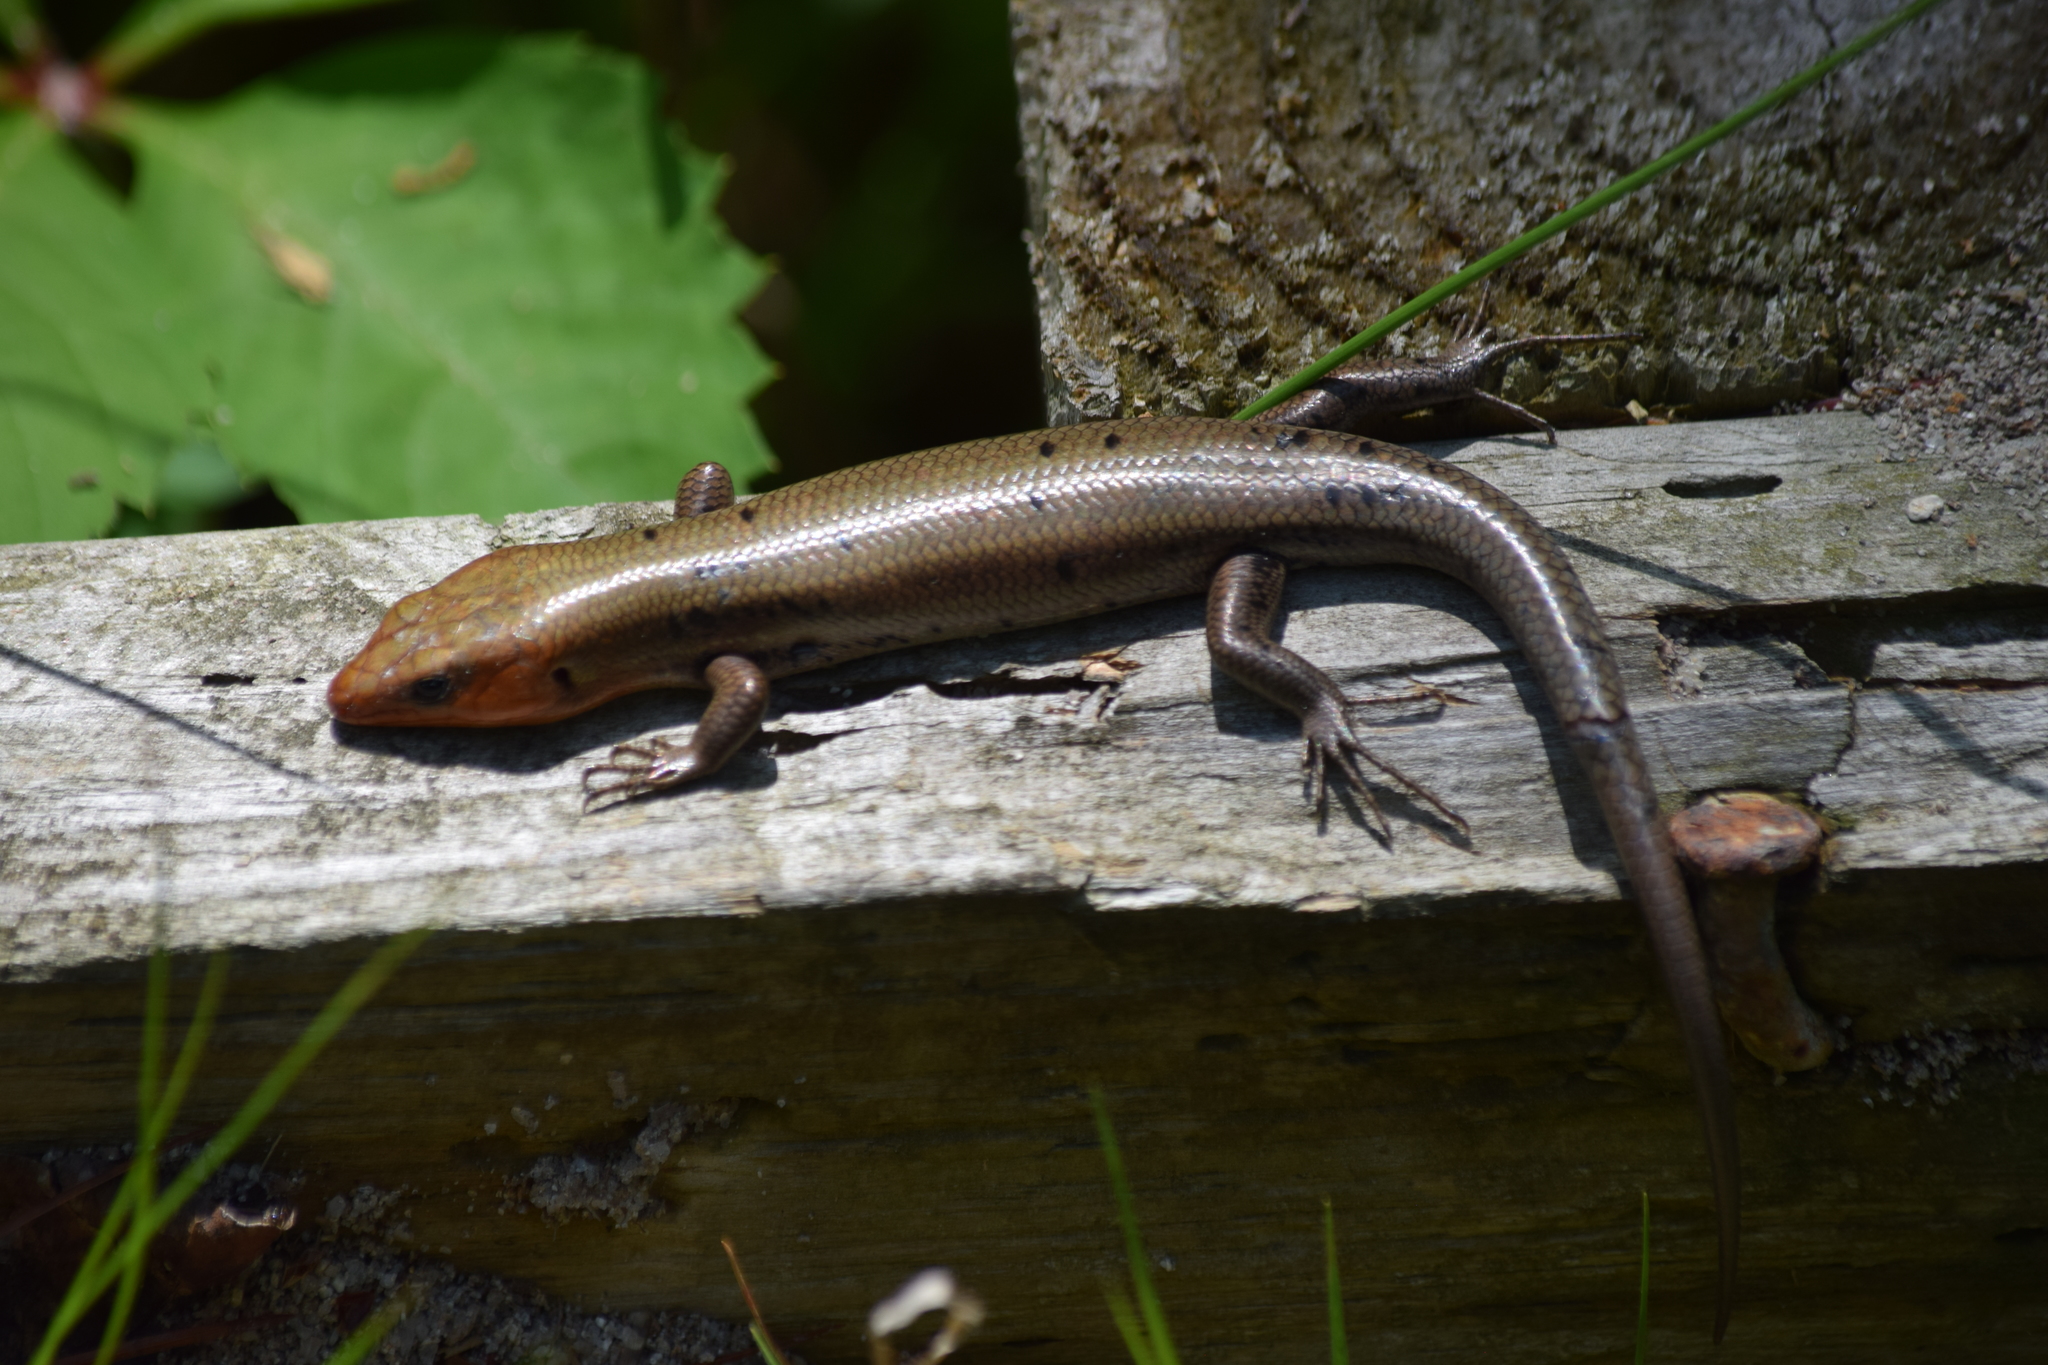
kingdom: Animalia
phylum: Chordata
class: Squamata
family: Scincidae
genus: Plestiodon
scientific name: Plestiodon fasciatus
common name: Five-lined skink
